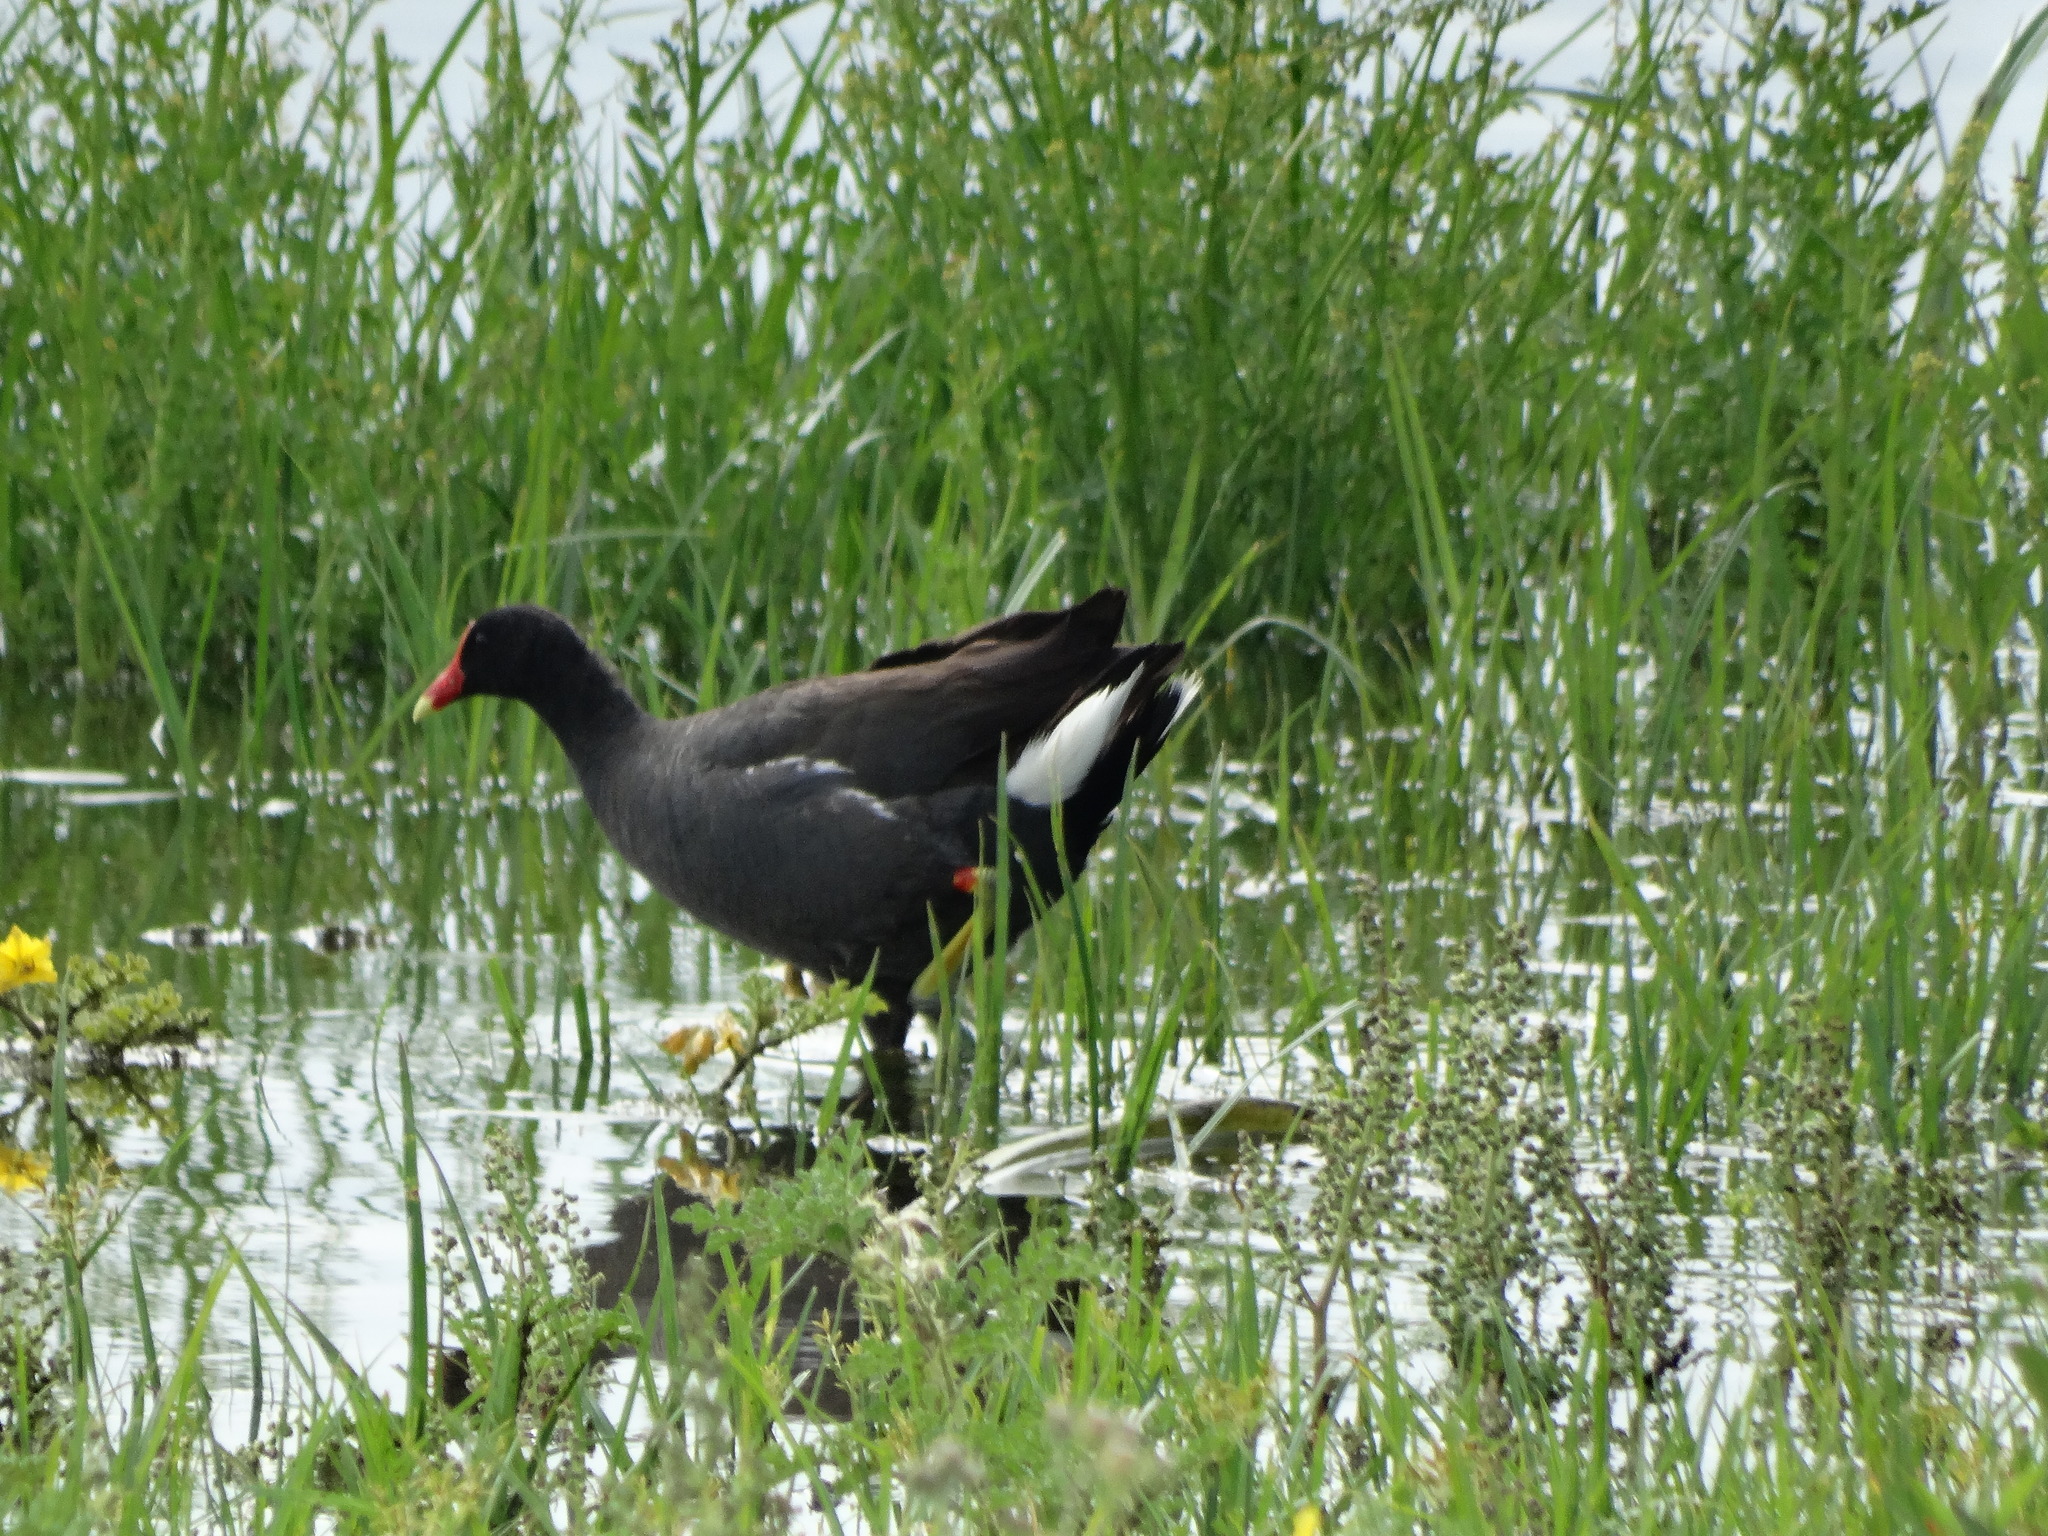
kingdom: Animalia
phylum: Chordata
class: Aves
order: Gruiformes
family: Rallidae
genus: Gallinula
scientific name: Gallinula chloropus
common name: Common moorhen
